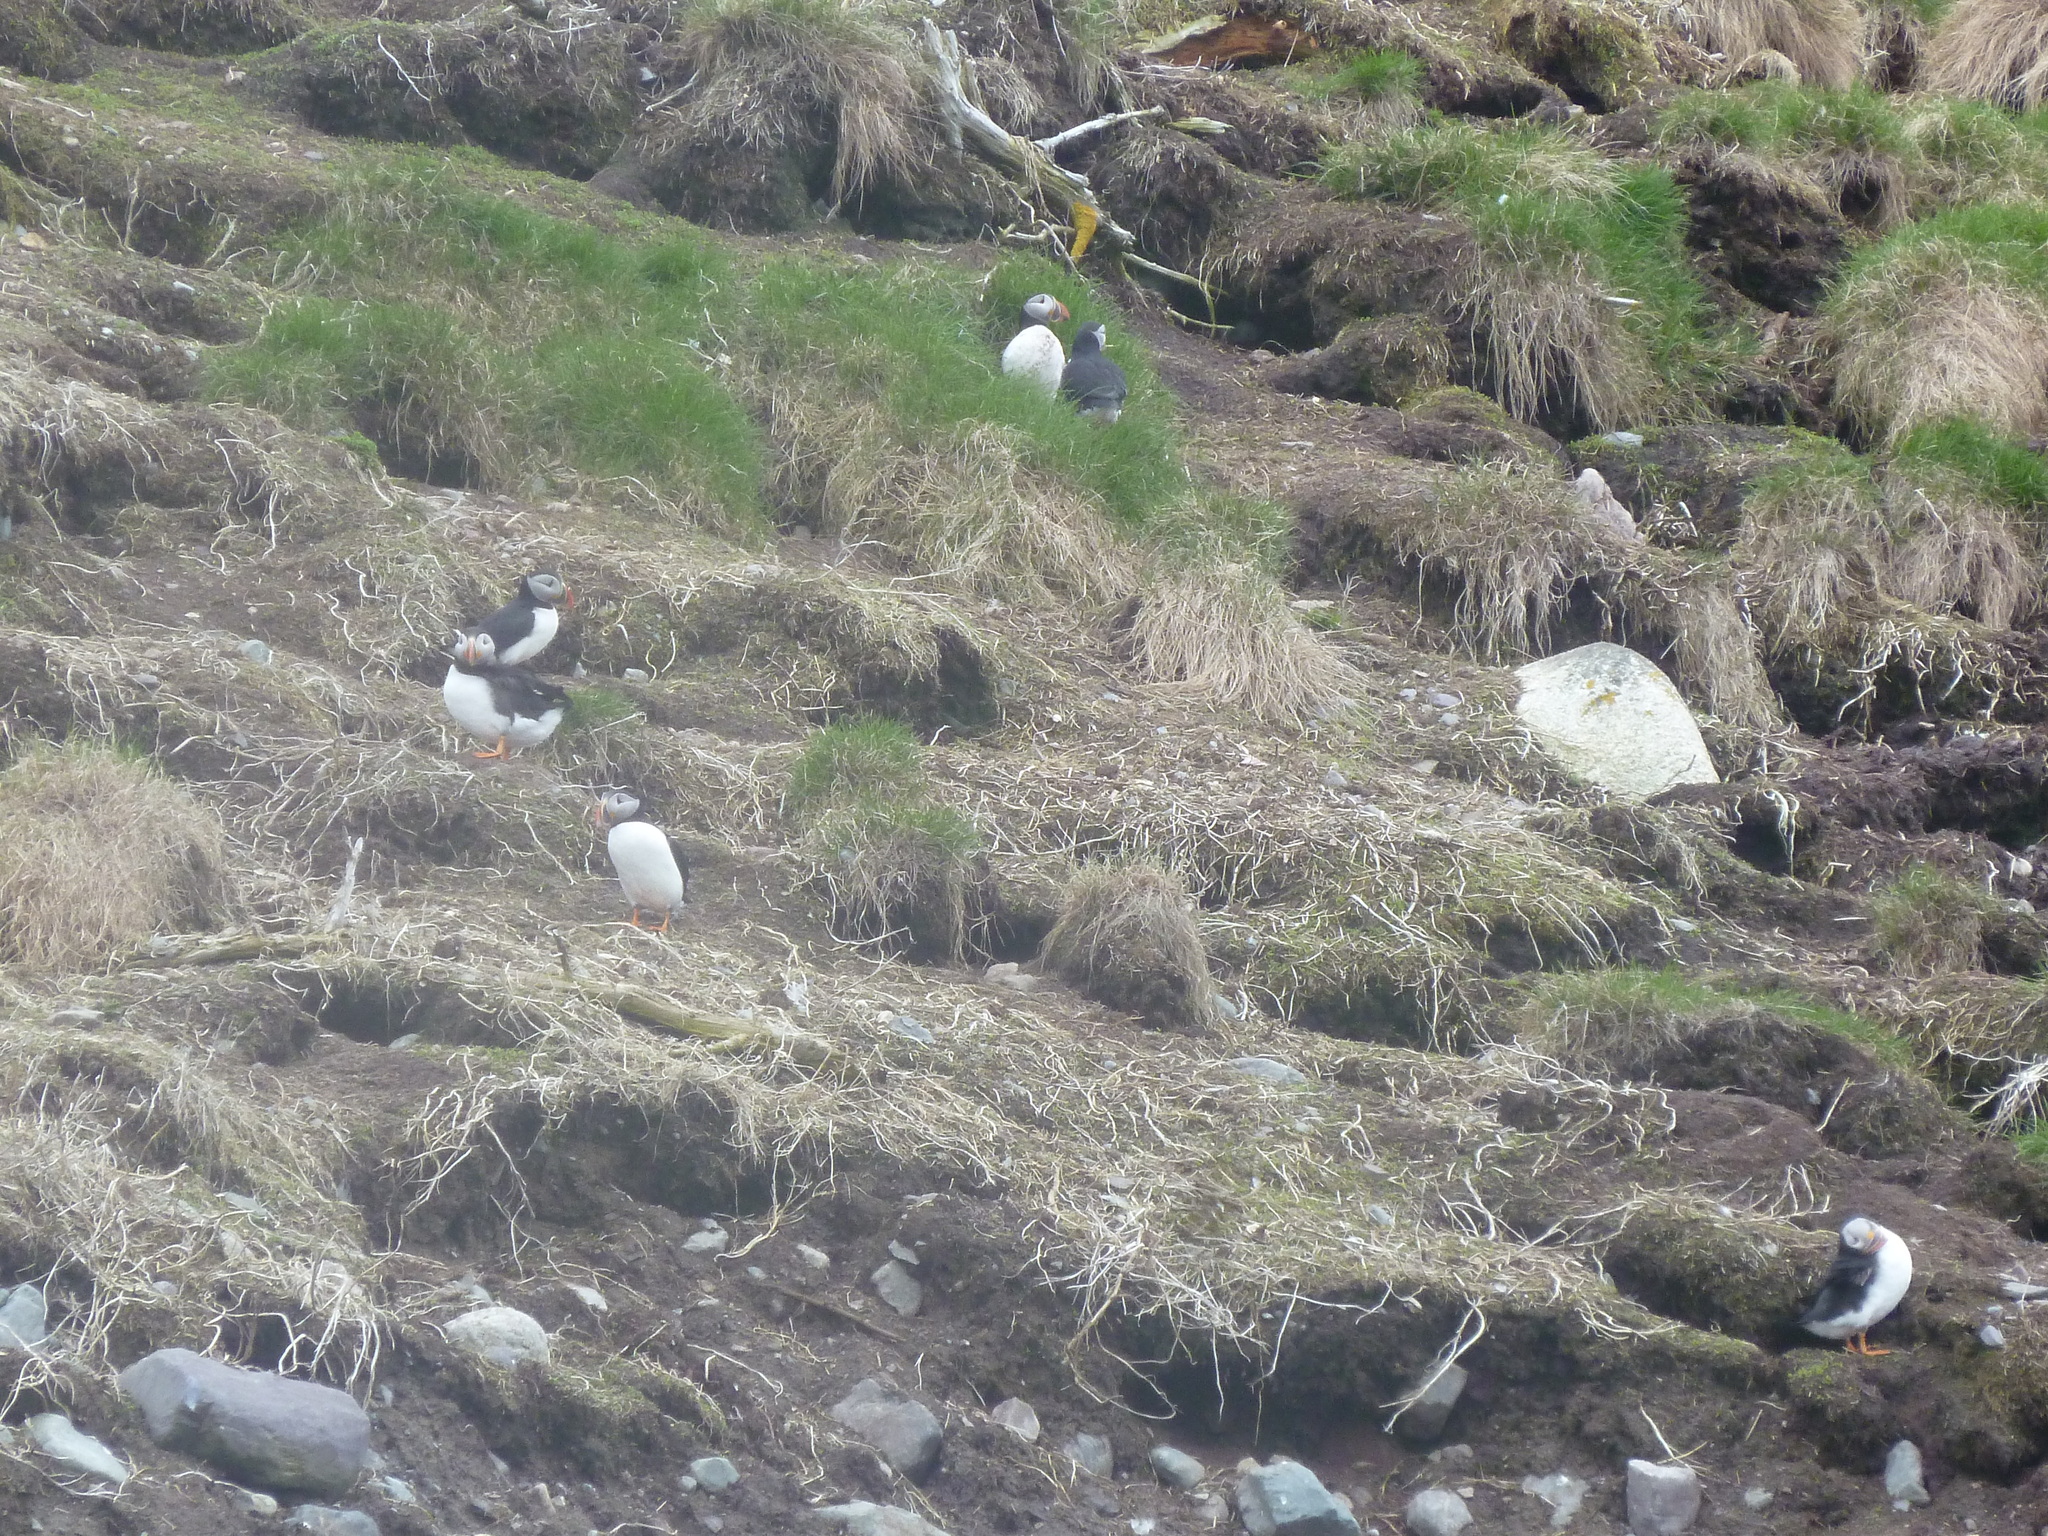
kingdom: Animalia
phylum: Chordata
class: Aves
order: Charadriiformes
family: Alcidae
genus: Fratercula
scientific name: Fratercula arctica
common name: Atlantic puffin
